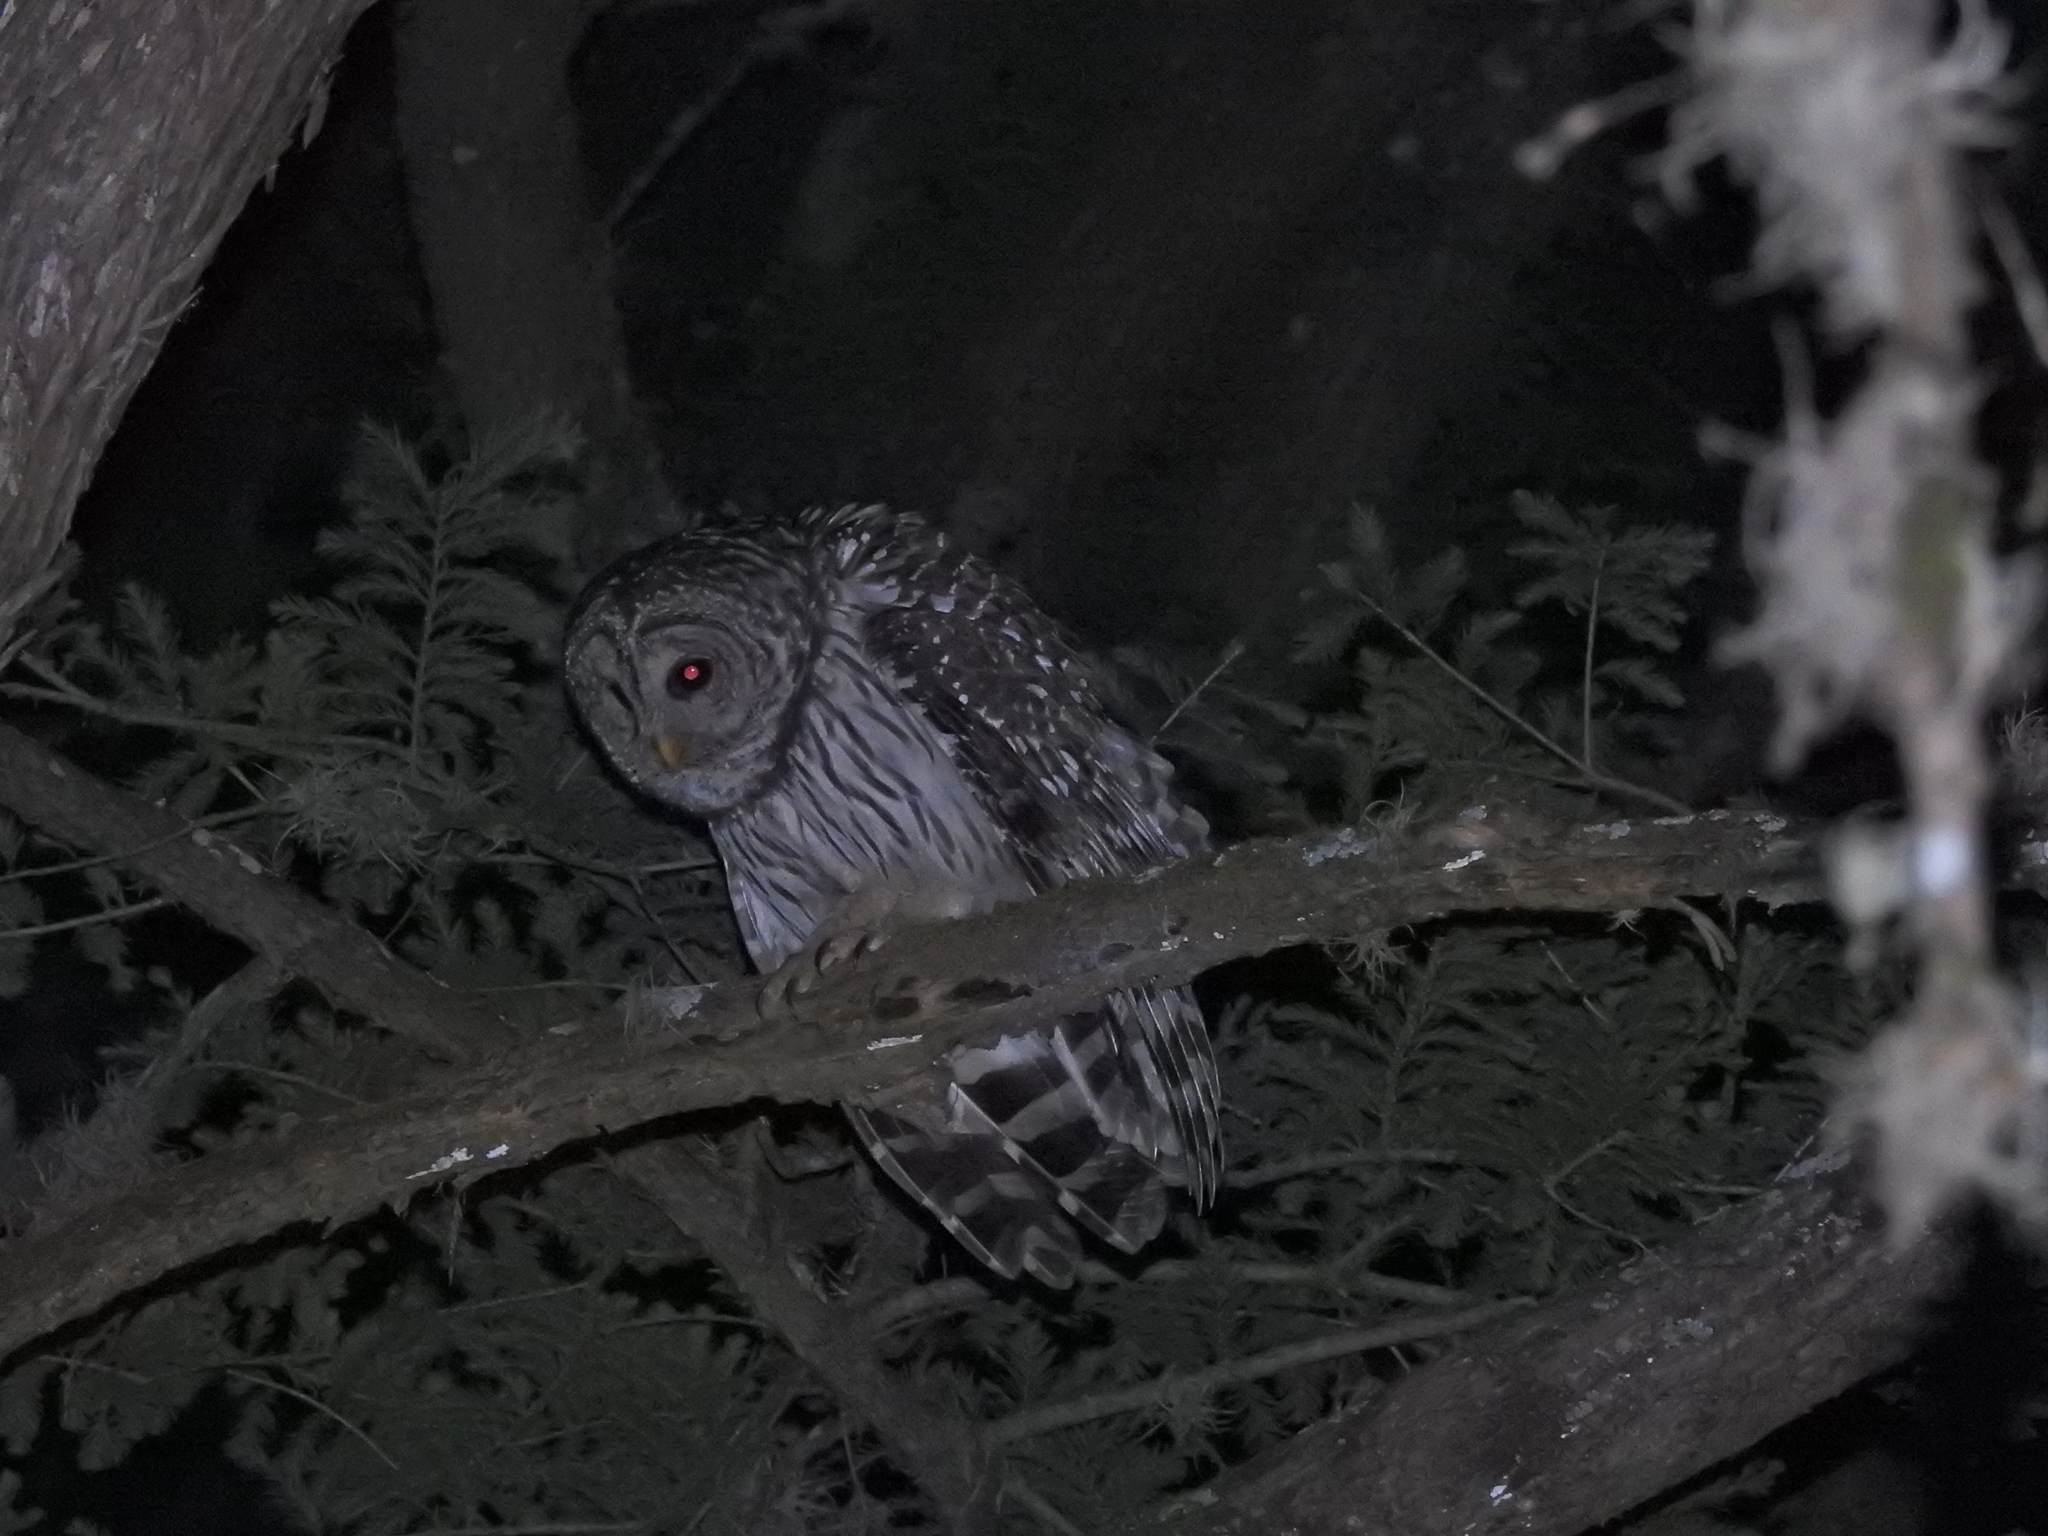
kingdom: Animalia
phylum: Chordata
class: Aves
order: Strigiformes
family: Strigidae
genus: Strix
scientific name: Strix varia
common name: Barred owl
